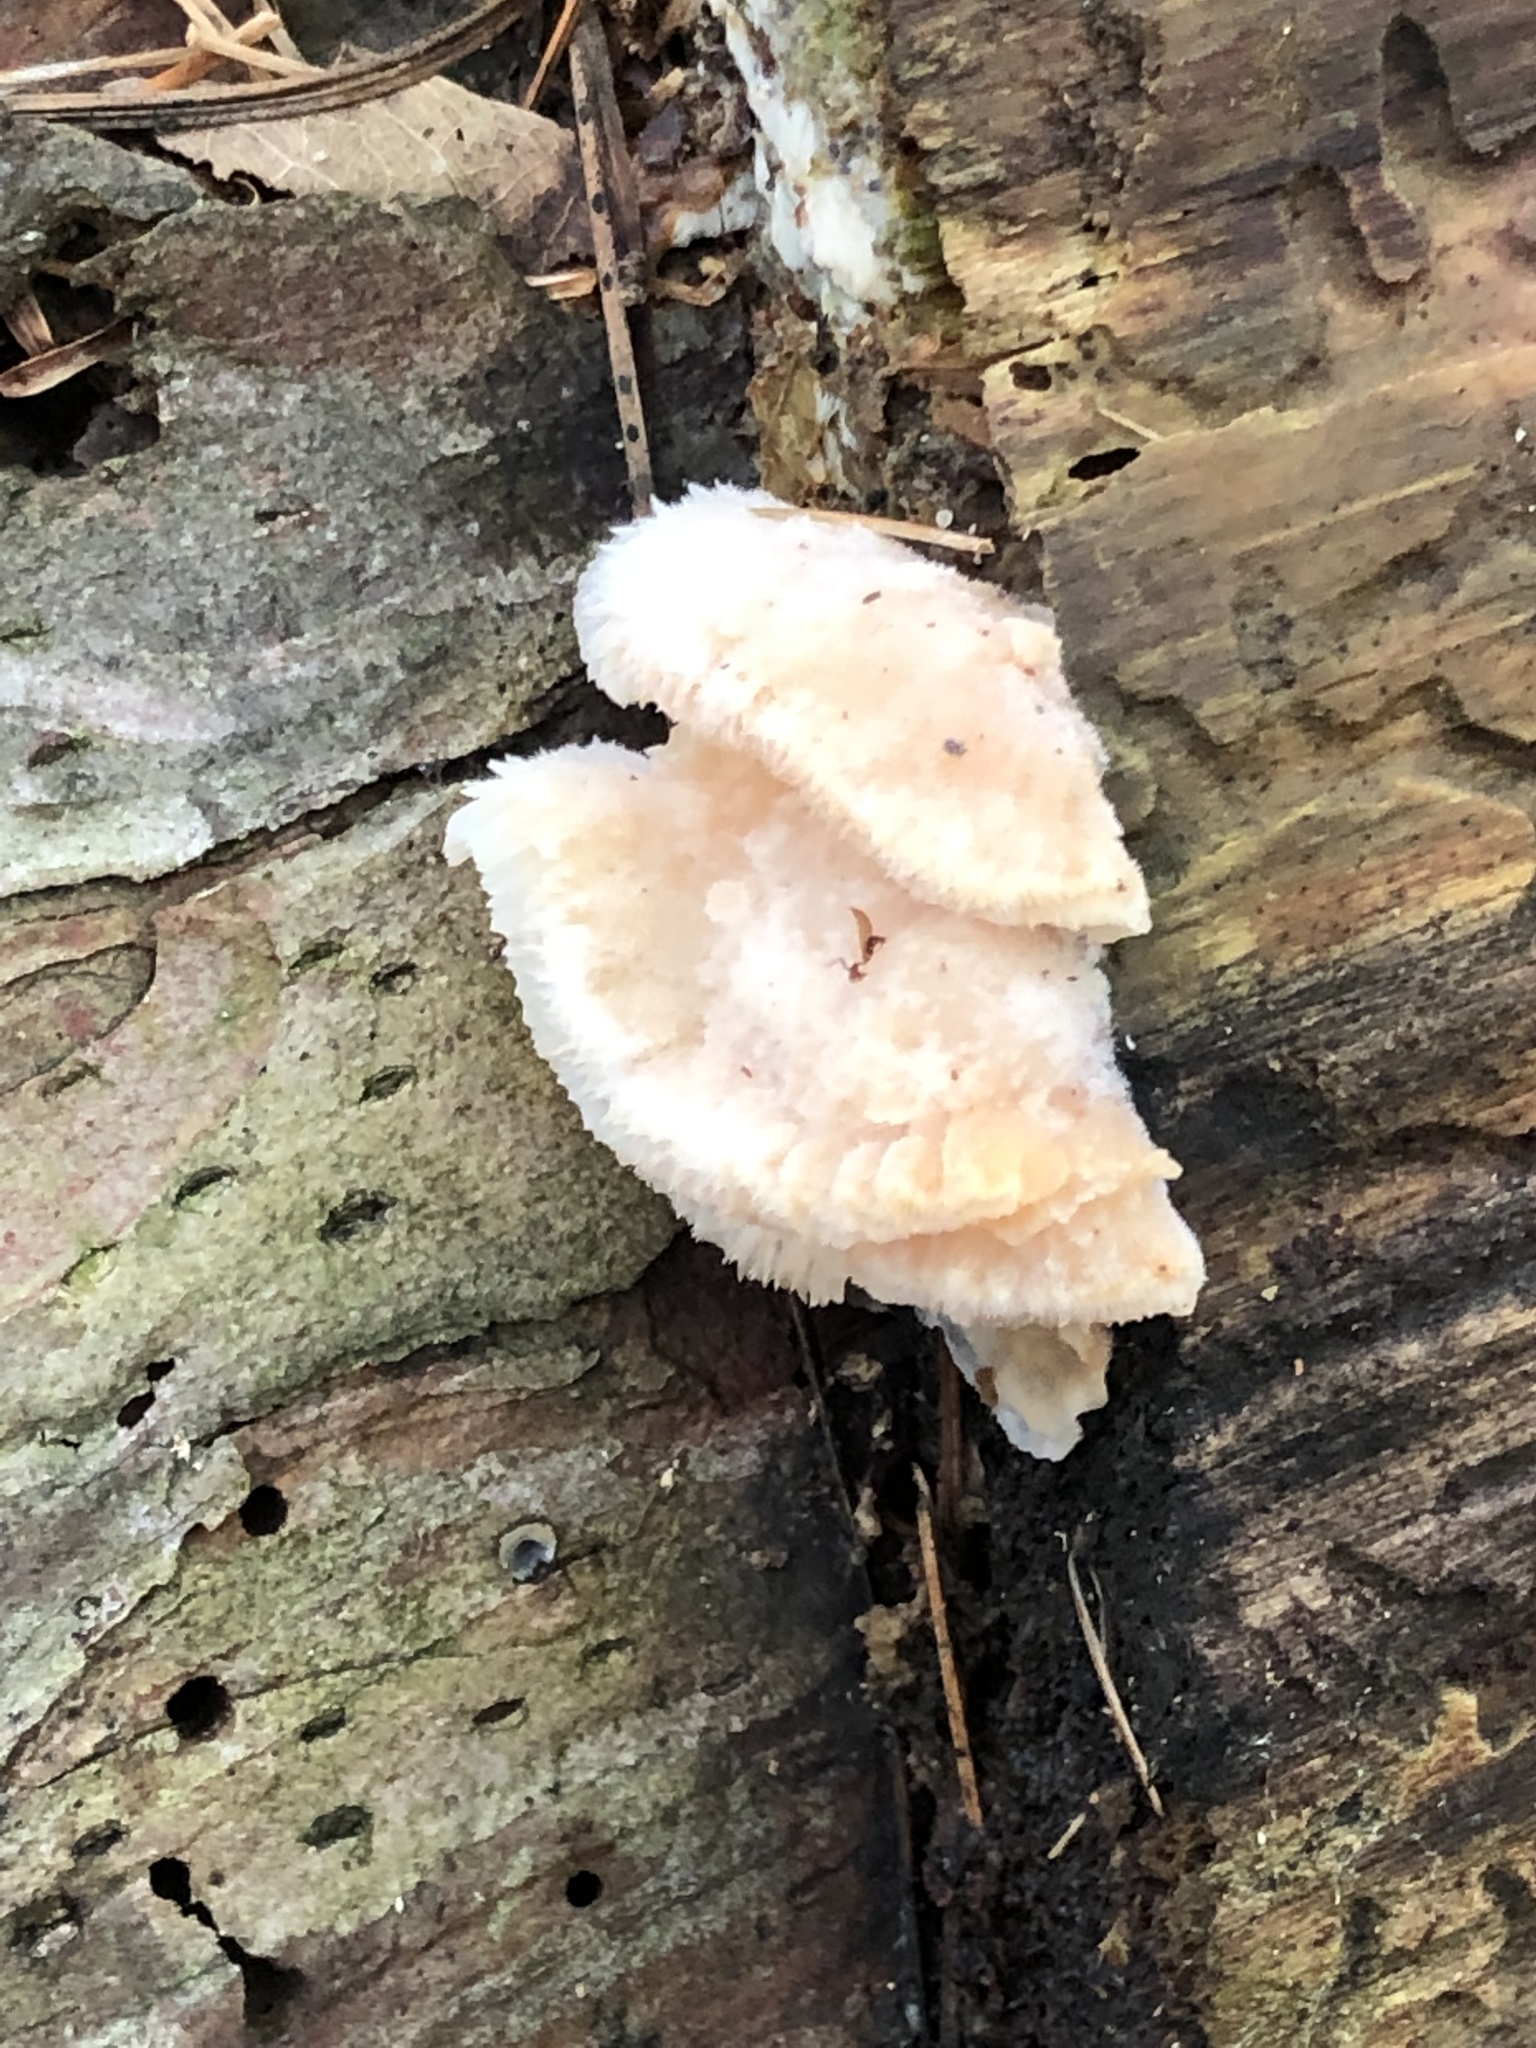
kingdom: Fungi
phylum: Basidiomycota
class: Agaricomycetes
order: Polyporales
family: Meruliaceae
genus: Phlebia
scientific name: Phlebia tremellosa
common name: Jelly rot
